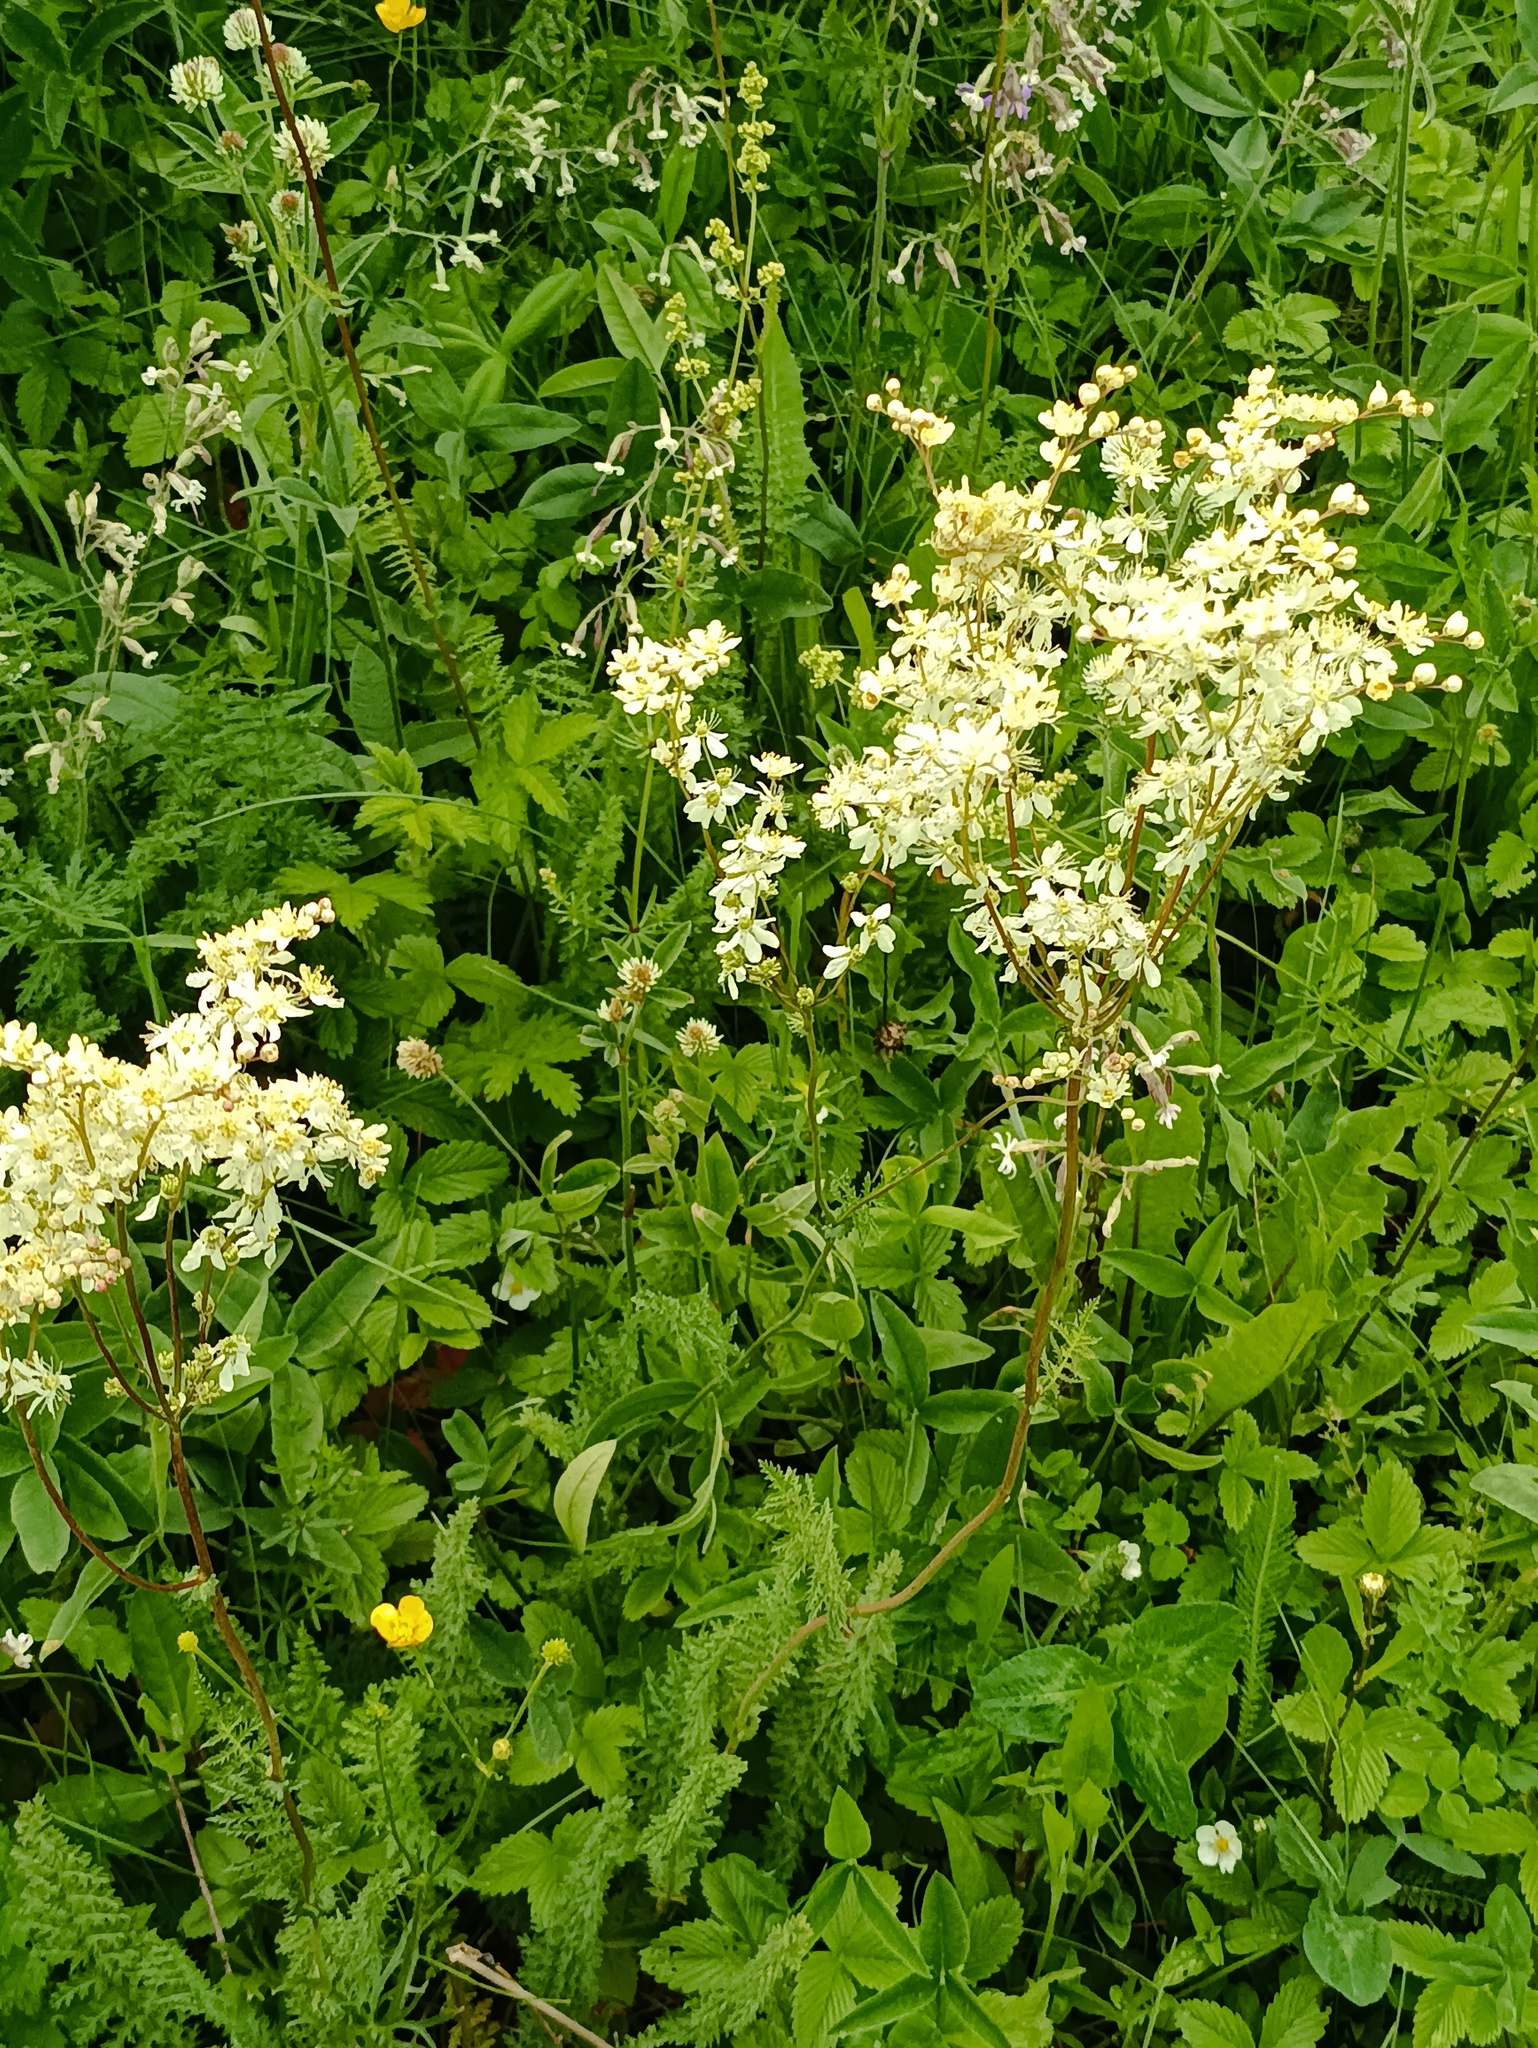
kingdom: Plantae
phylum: Tracheophyta
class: Magnoliopsida
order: Rosales
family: Rosaceae
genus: Filipendula
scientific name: Filipendula vulgaris
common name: Dropwort
